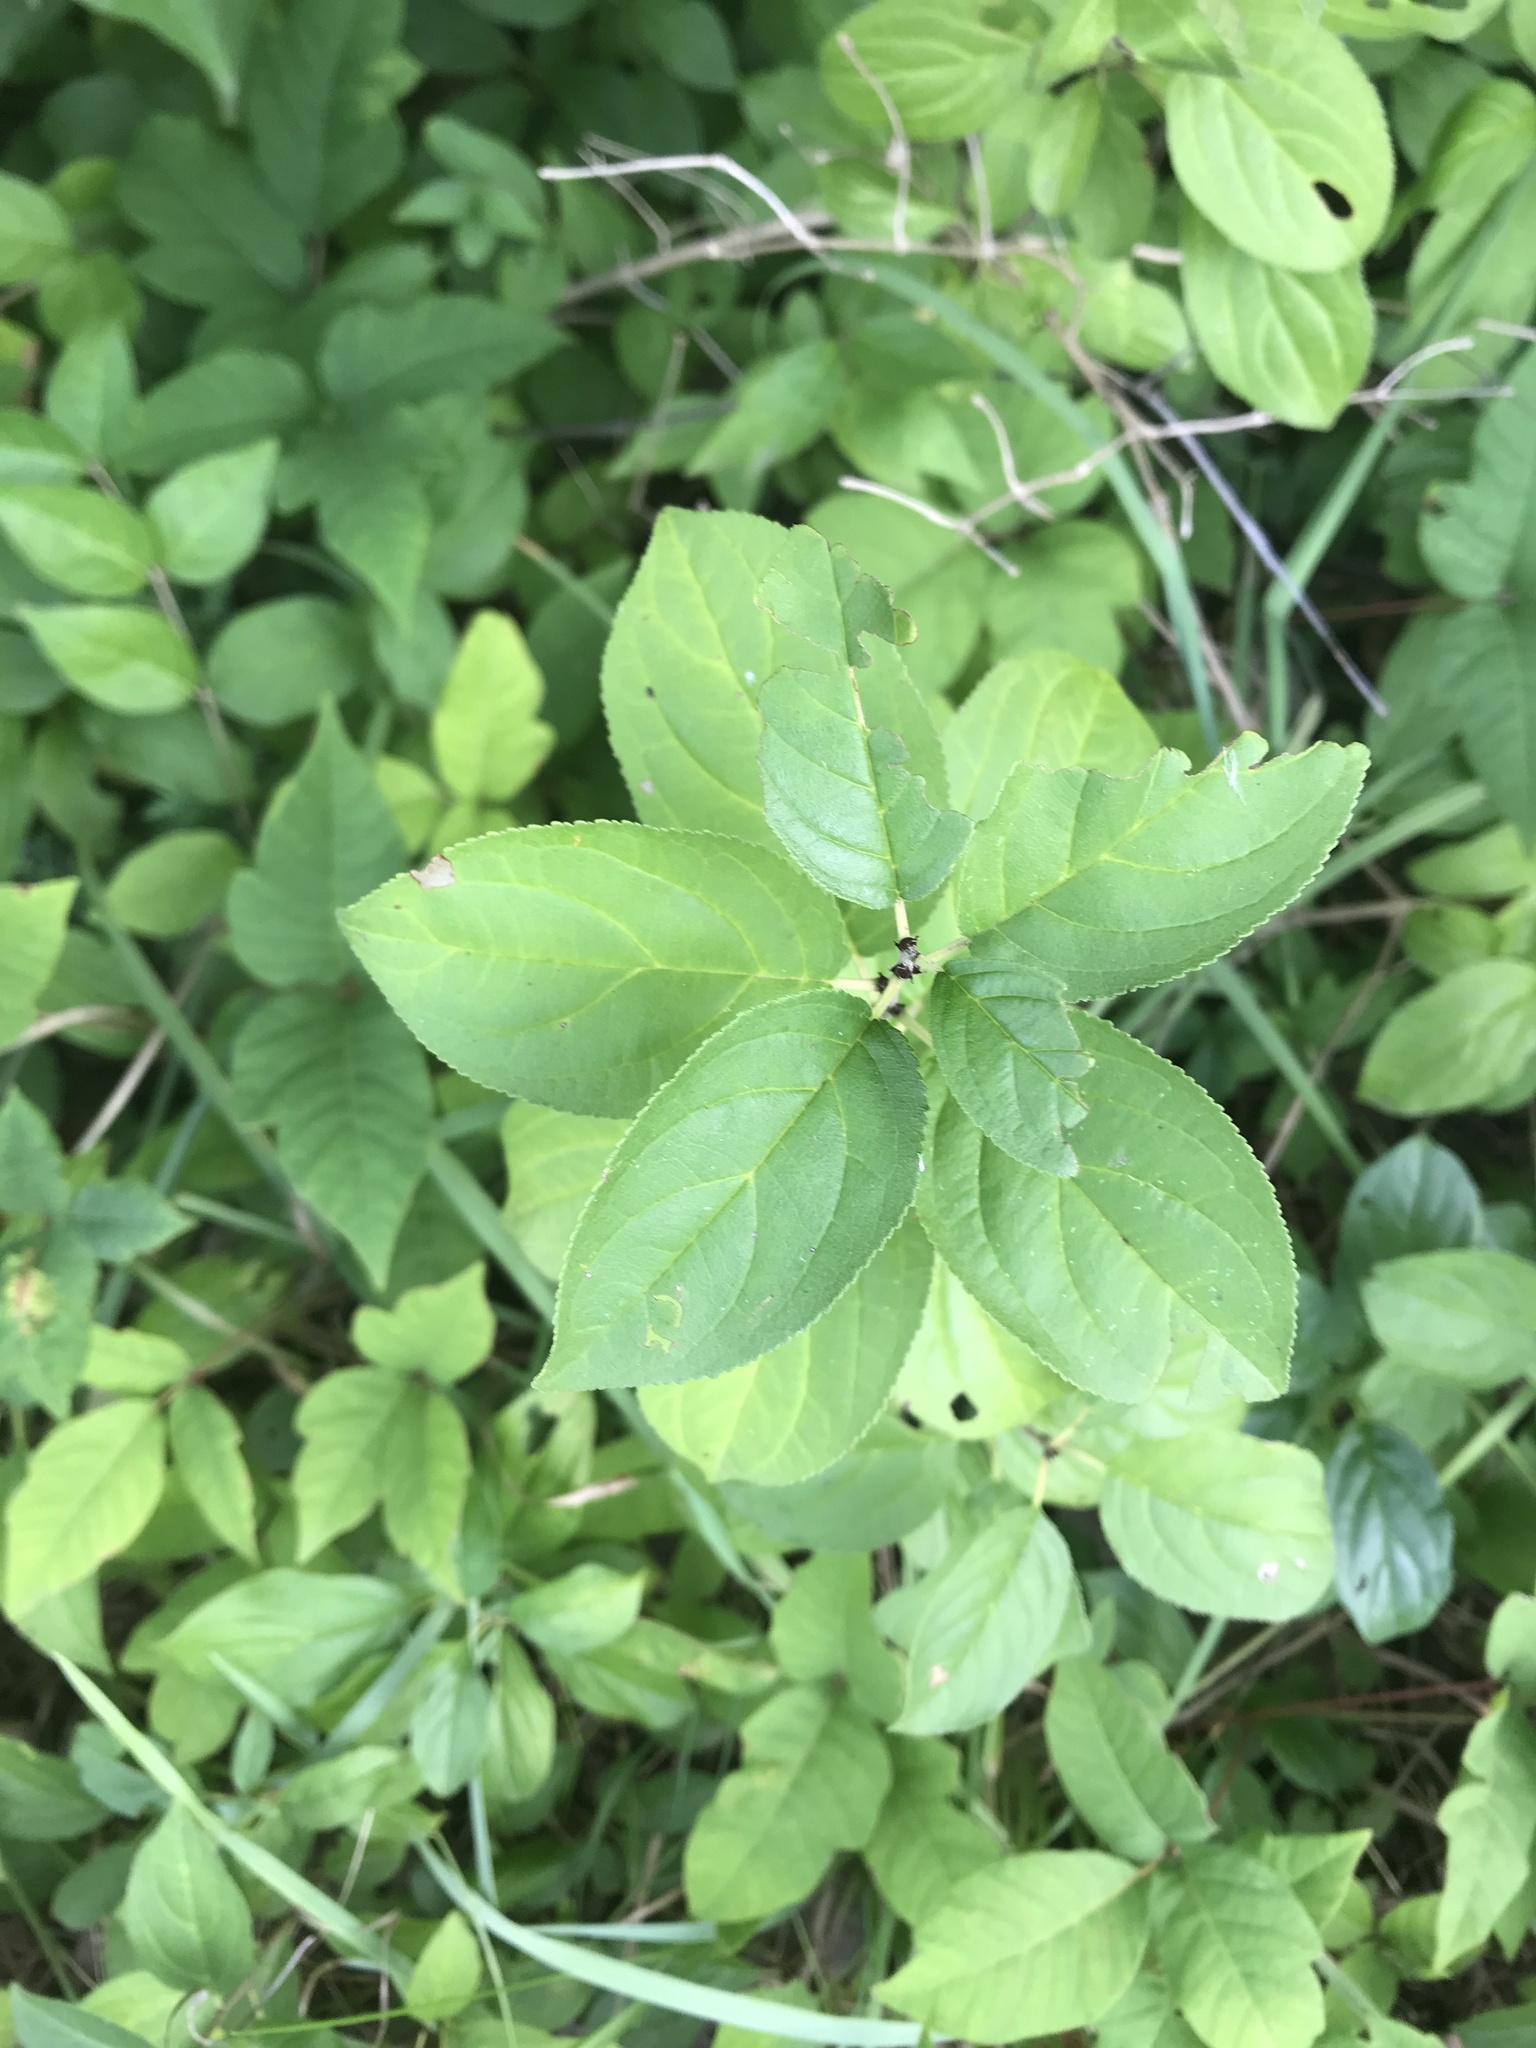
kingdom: Plantae
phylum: Tracheophyta
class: Magnoliopsida
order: Rosales
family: Rhamnaceae
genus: Rhamnus
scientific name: Rhamnus cathartica
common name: Common buckthorn
